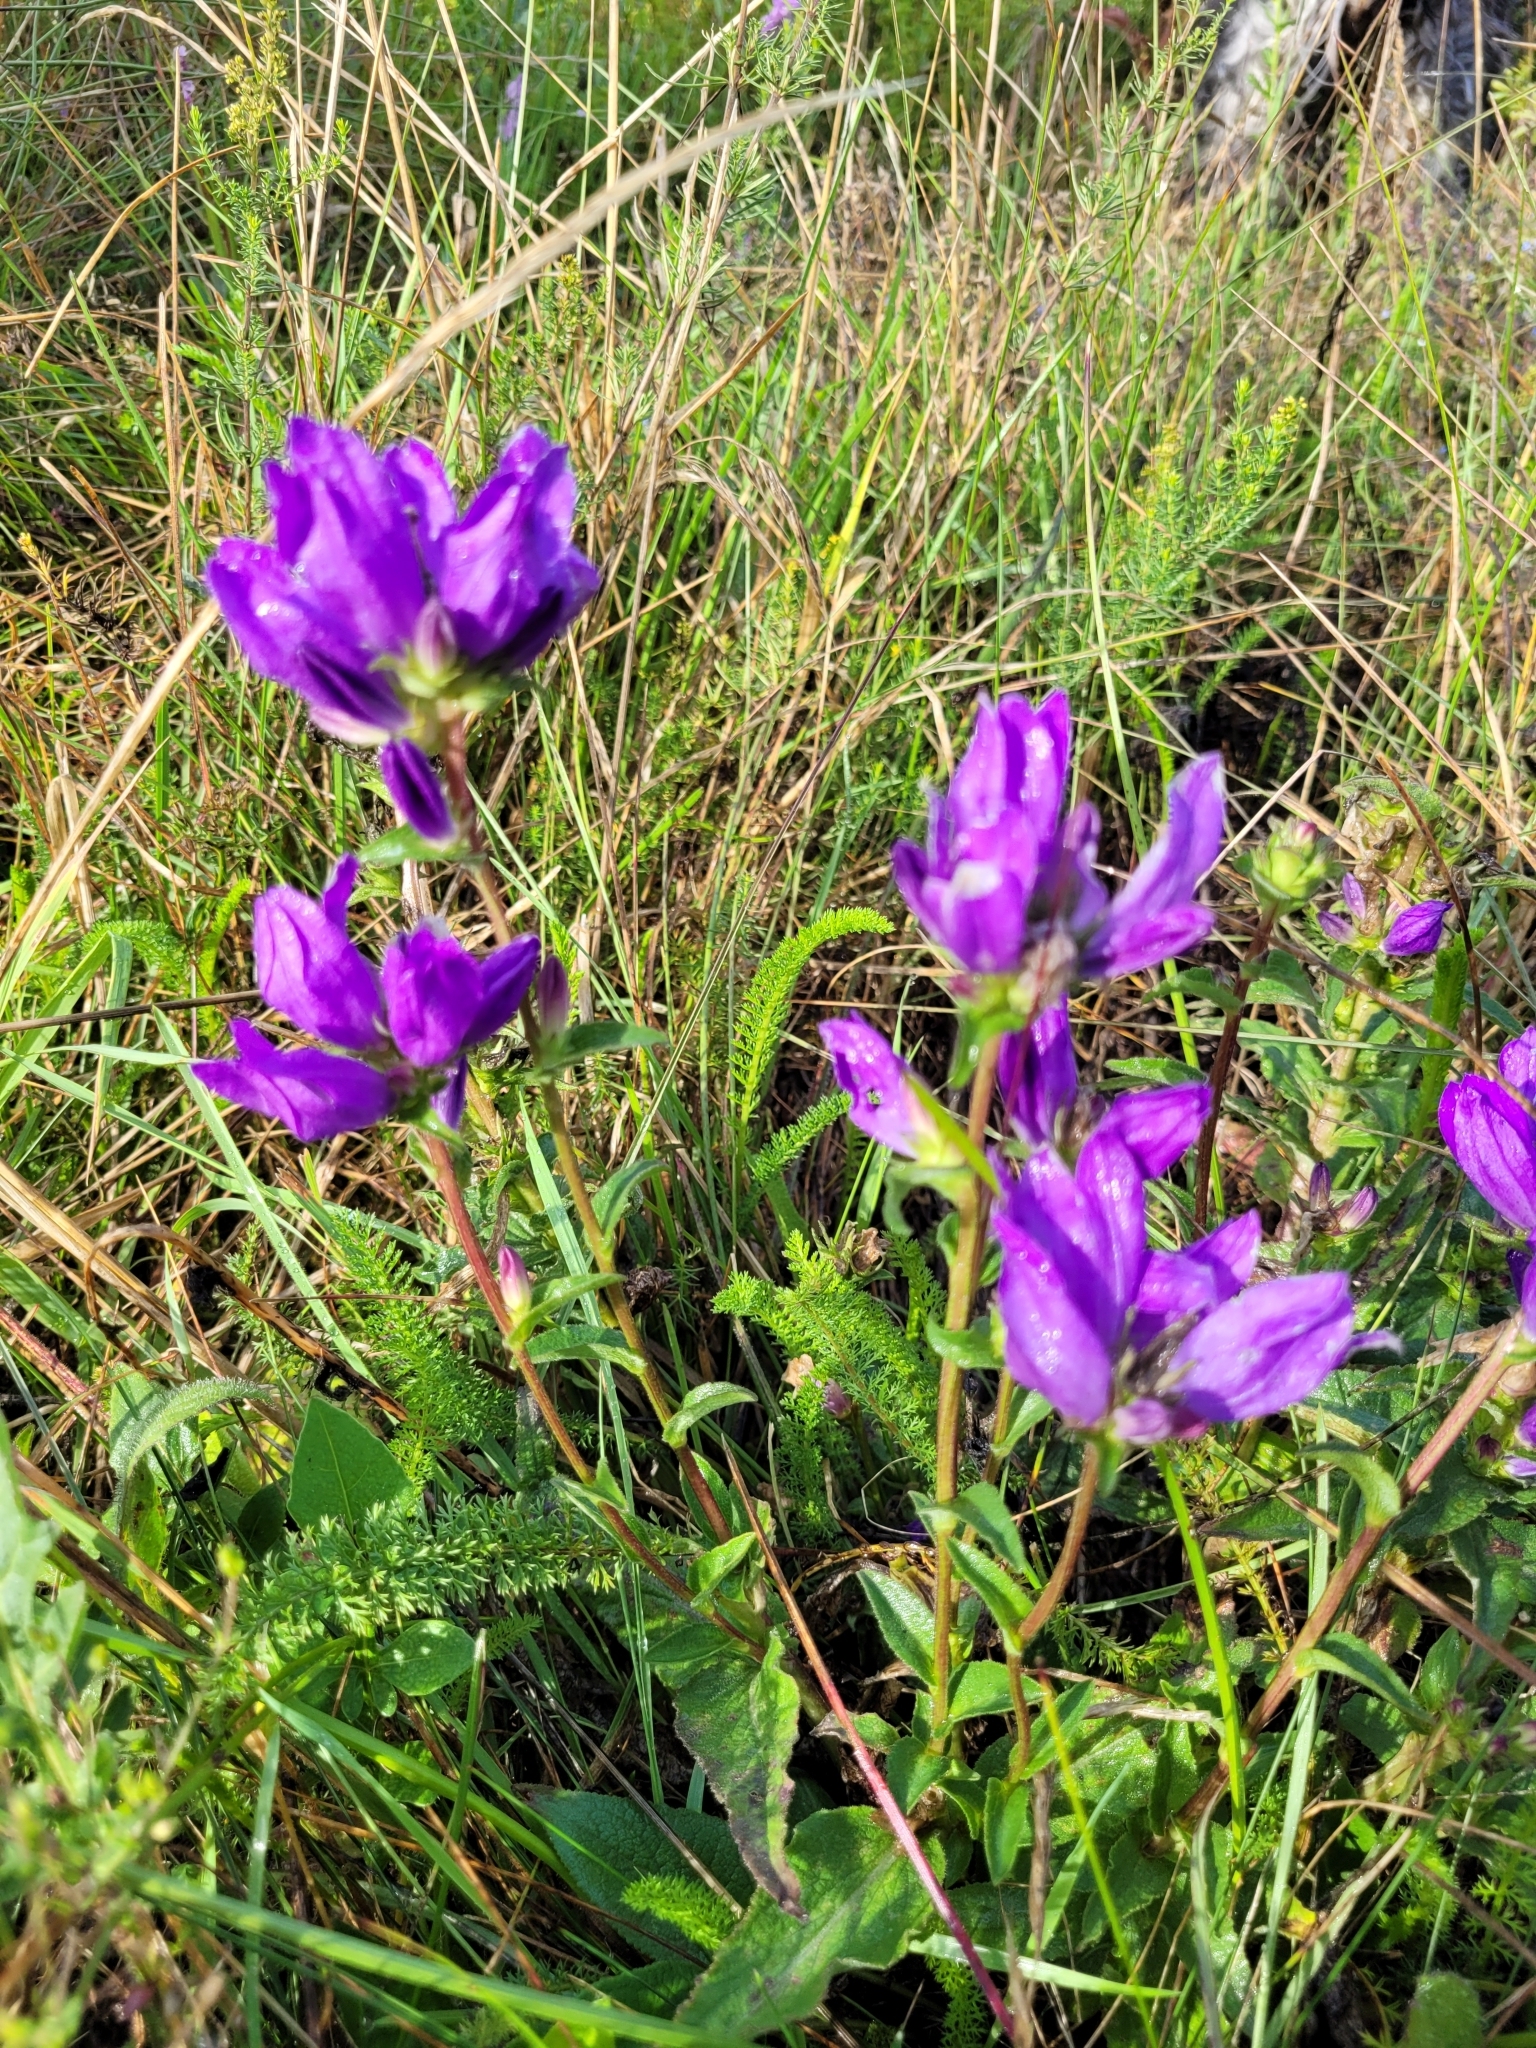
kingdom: Plantae
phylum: Tracheophyta
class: Magnoliopsida
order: Asterales
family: Campanulaceae
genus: Campanula
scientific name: Campanula glomerata
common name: Clustered bellflower
